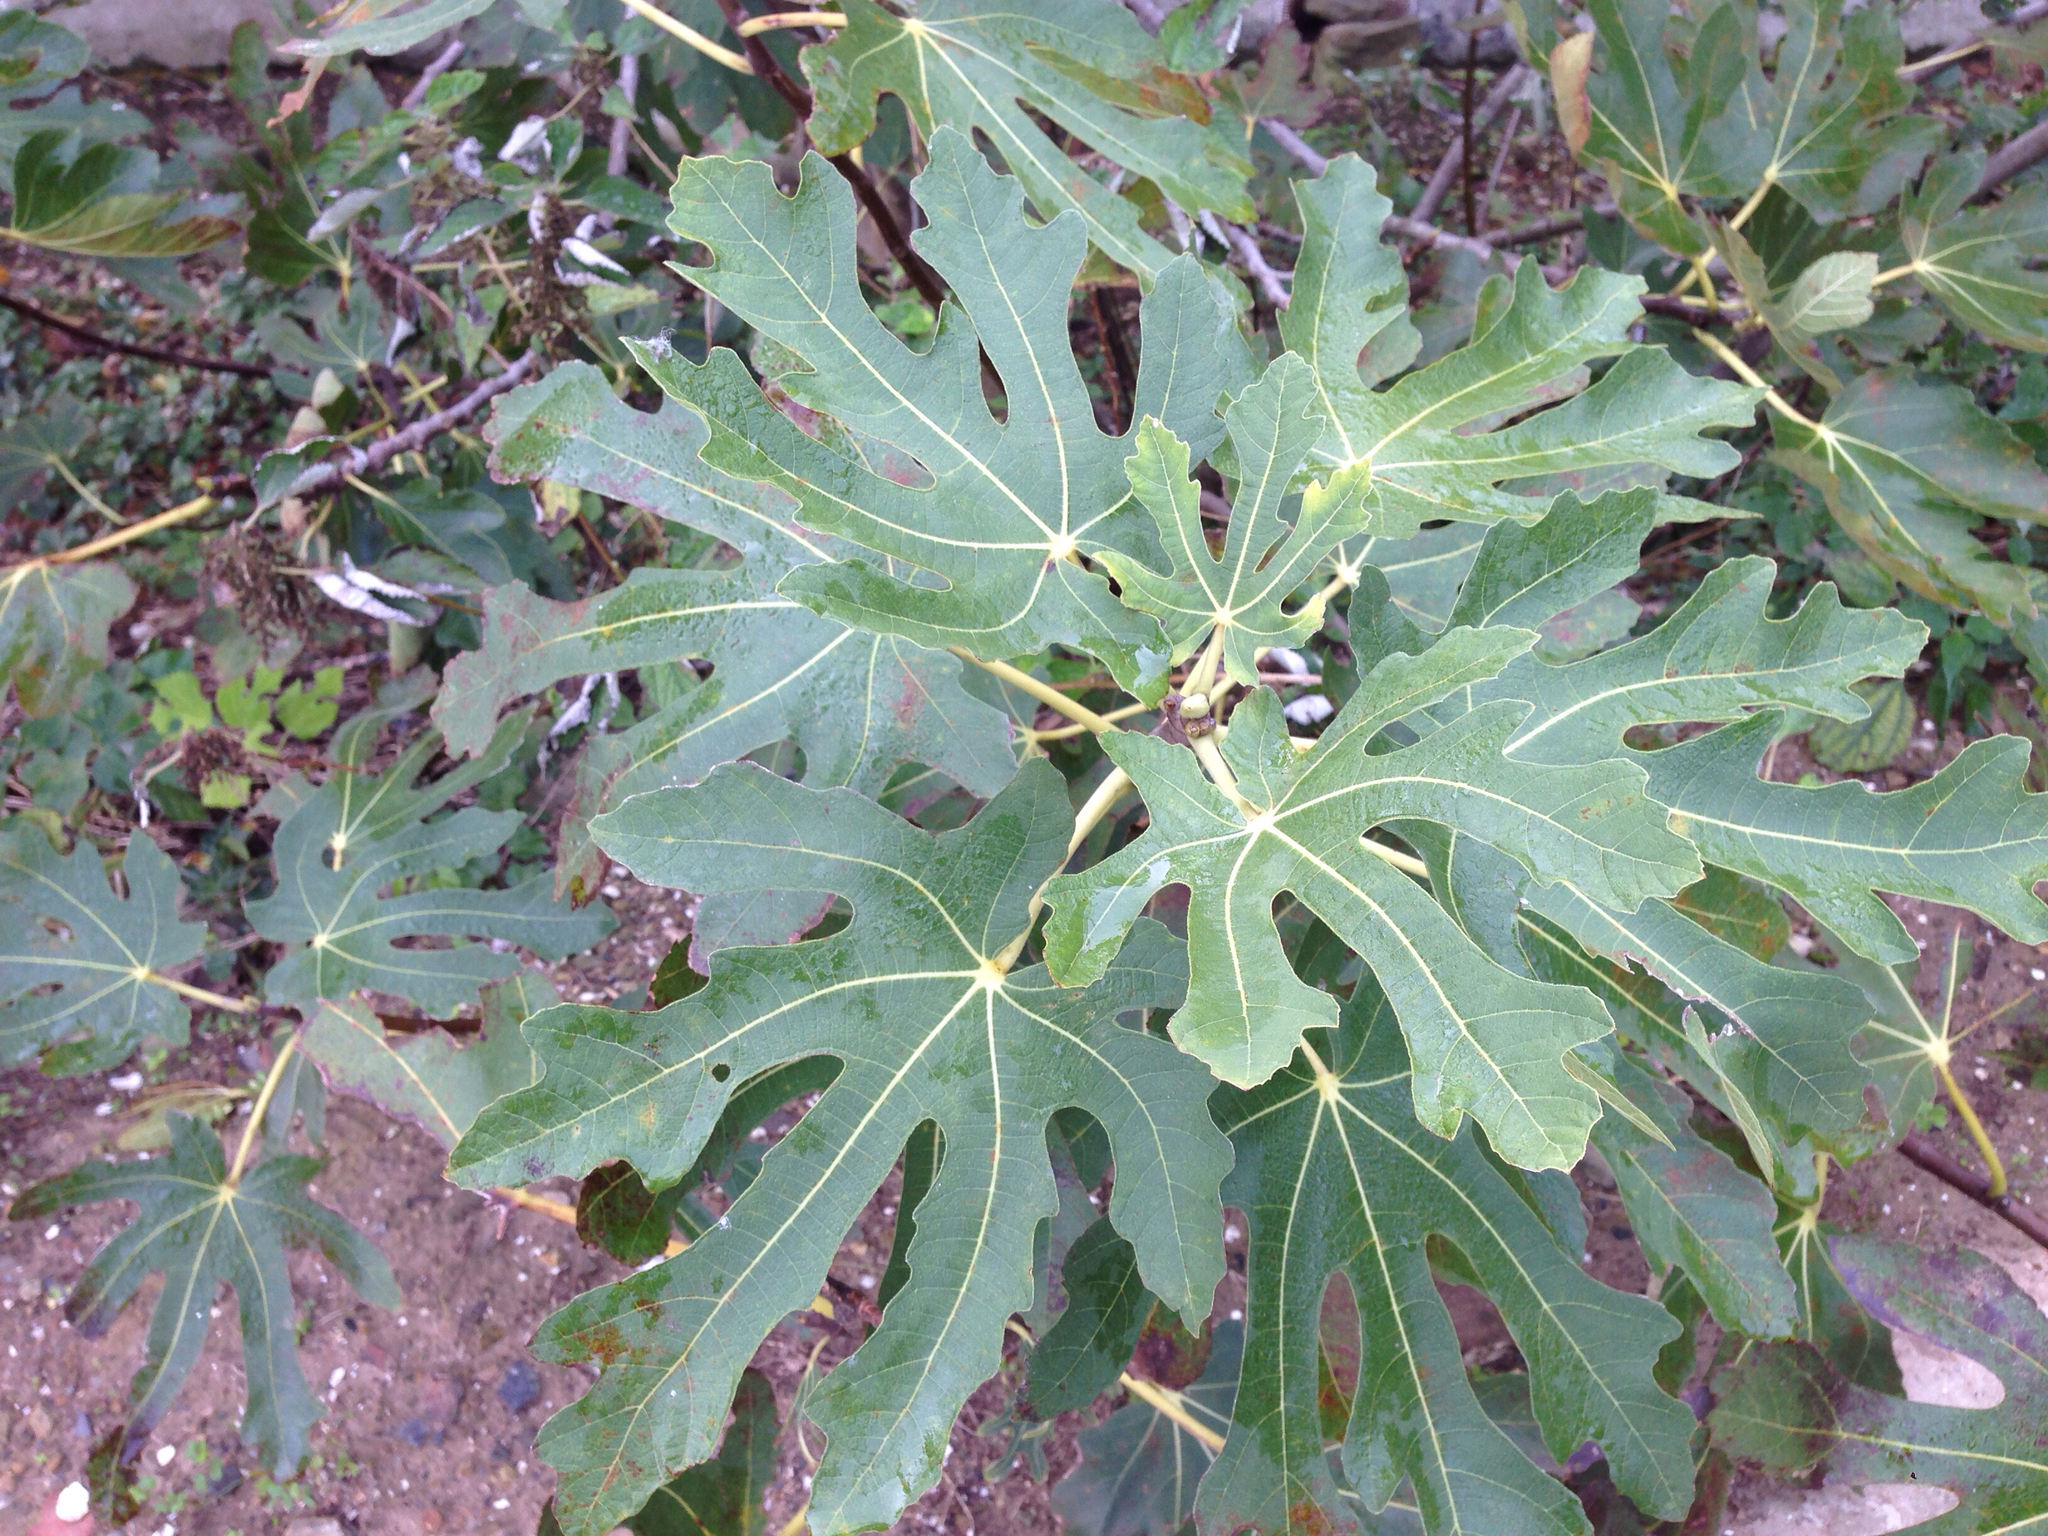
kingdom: Plantae
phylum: Tracheophyta
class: Magnoliopsida
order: Rosales
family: Moraceae
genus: Ficus
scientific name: Ficus carica
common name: Fig
